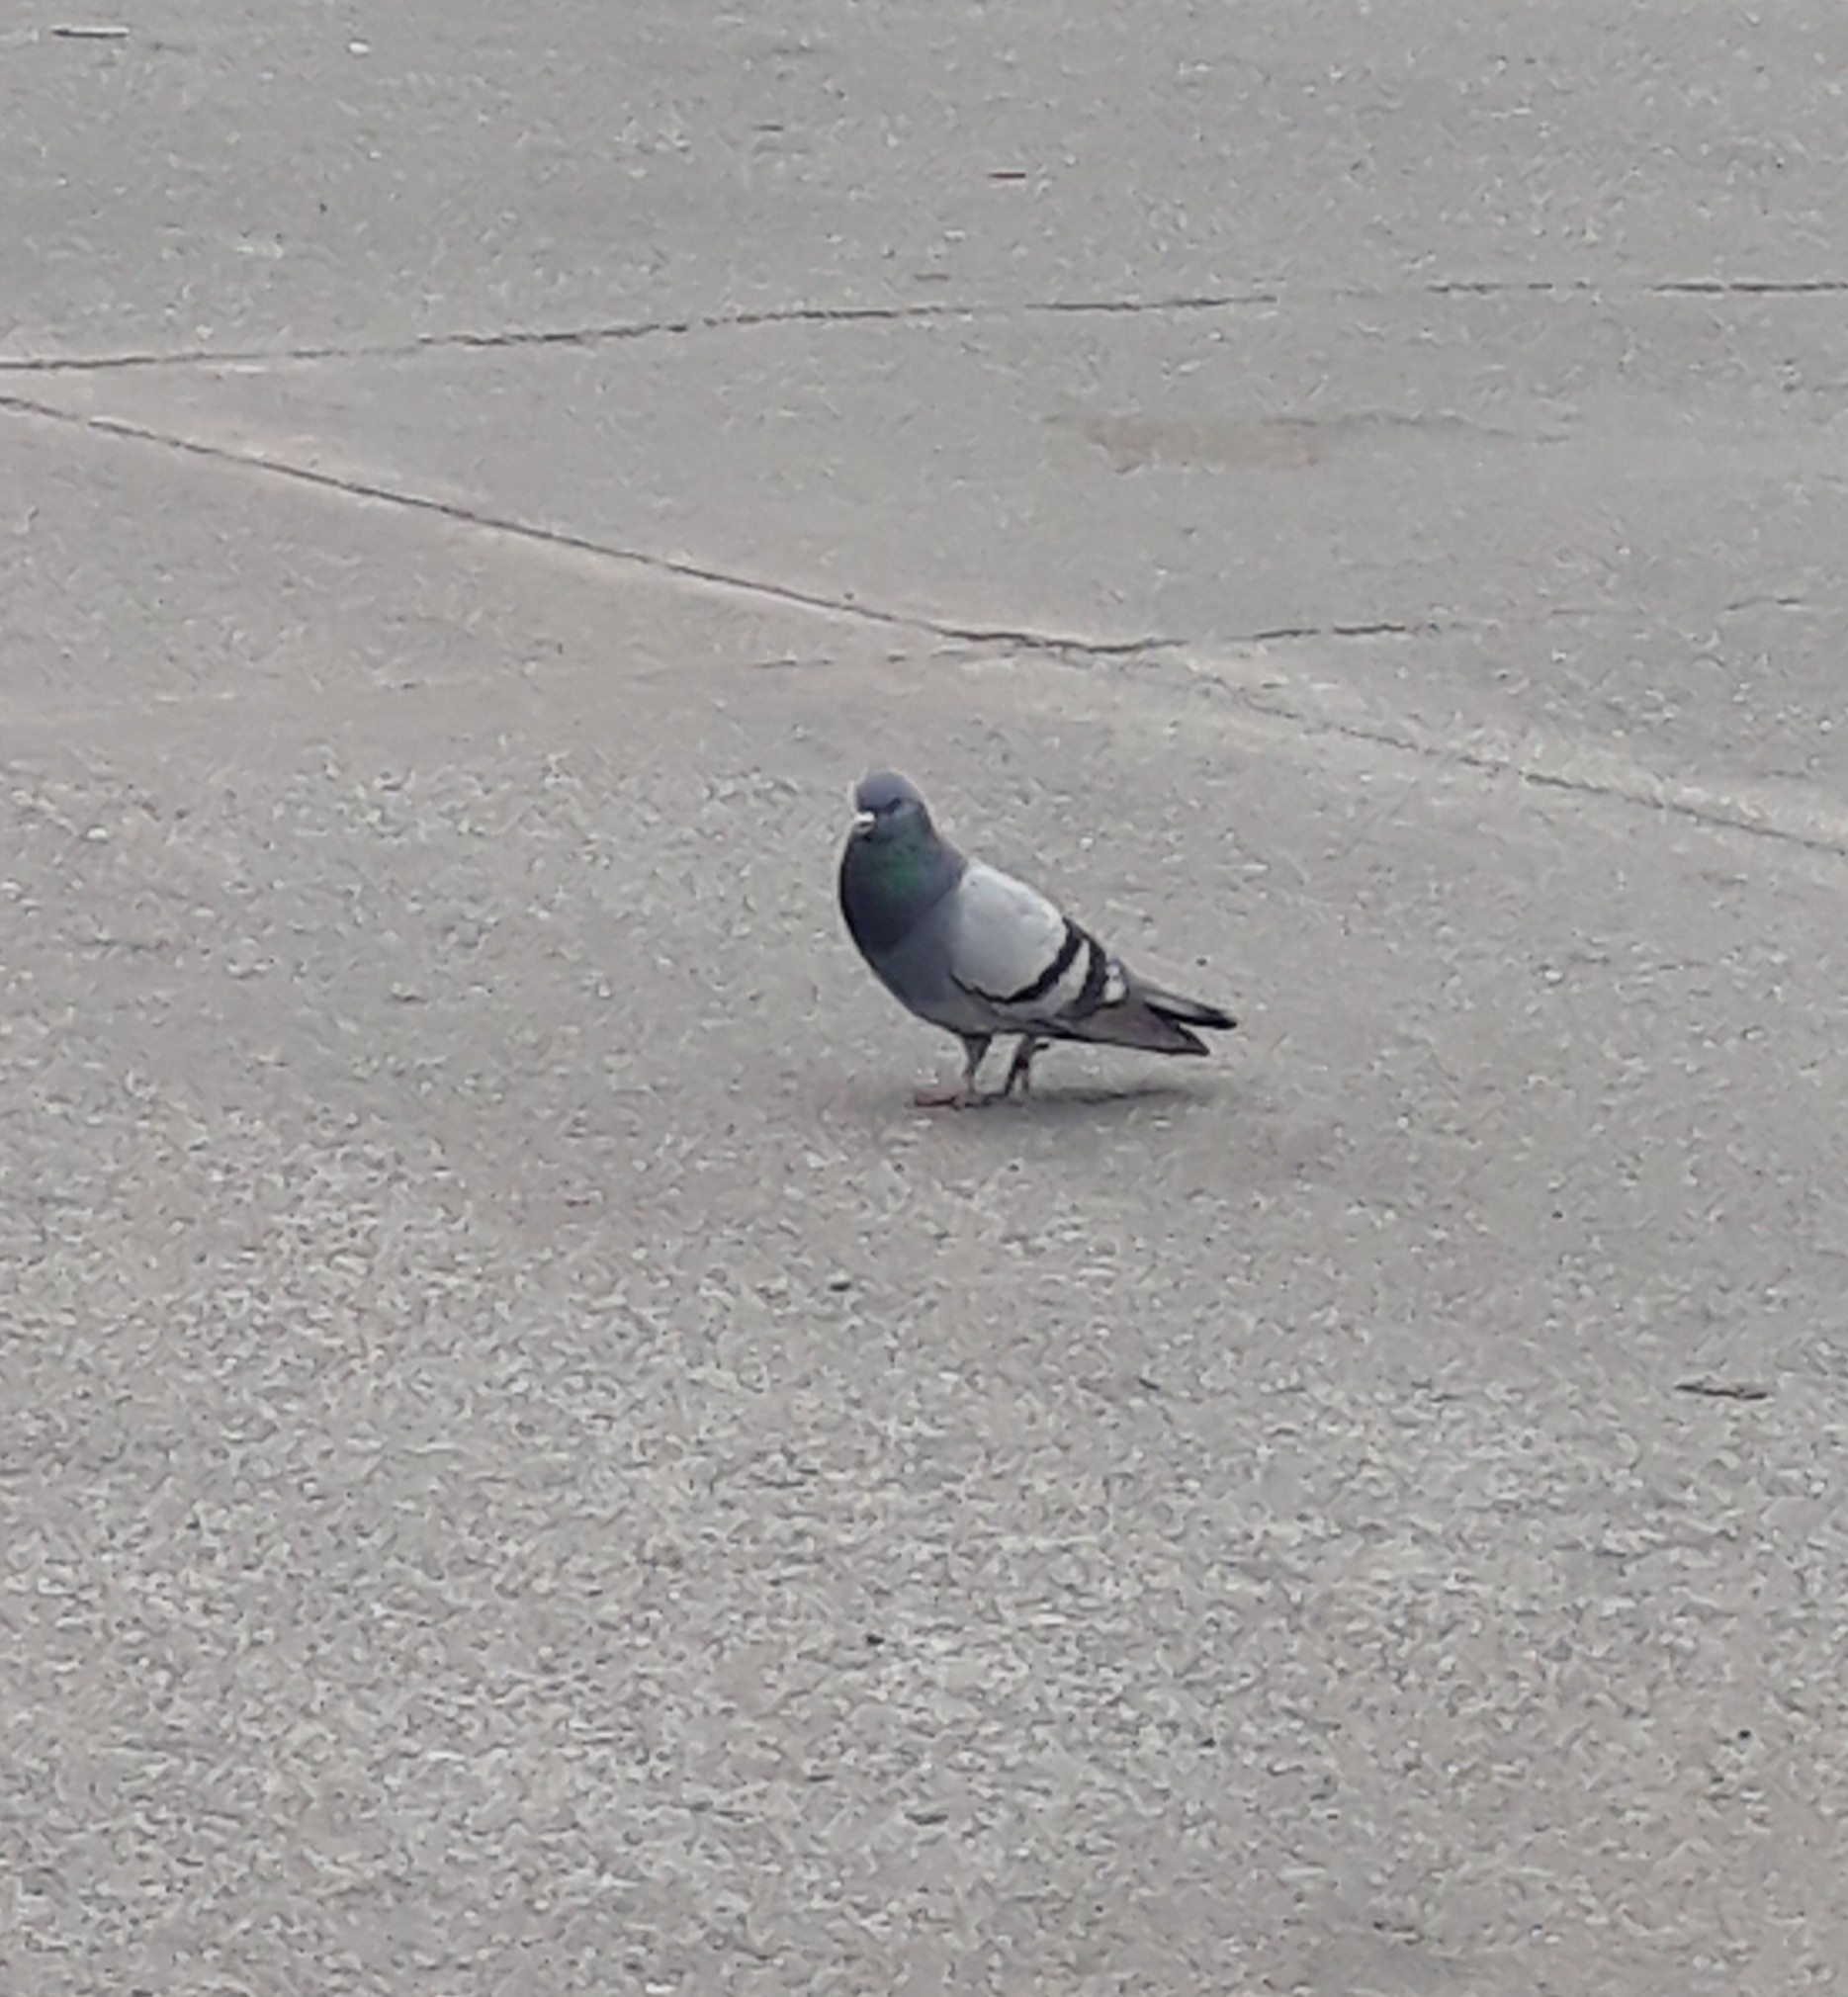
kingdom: Animalia
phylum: Chordata
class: Aves
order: Columbiformes
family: Columbidae
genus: Columba
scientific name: Columba livia
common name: Rock pigeon
